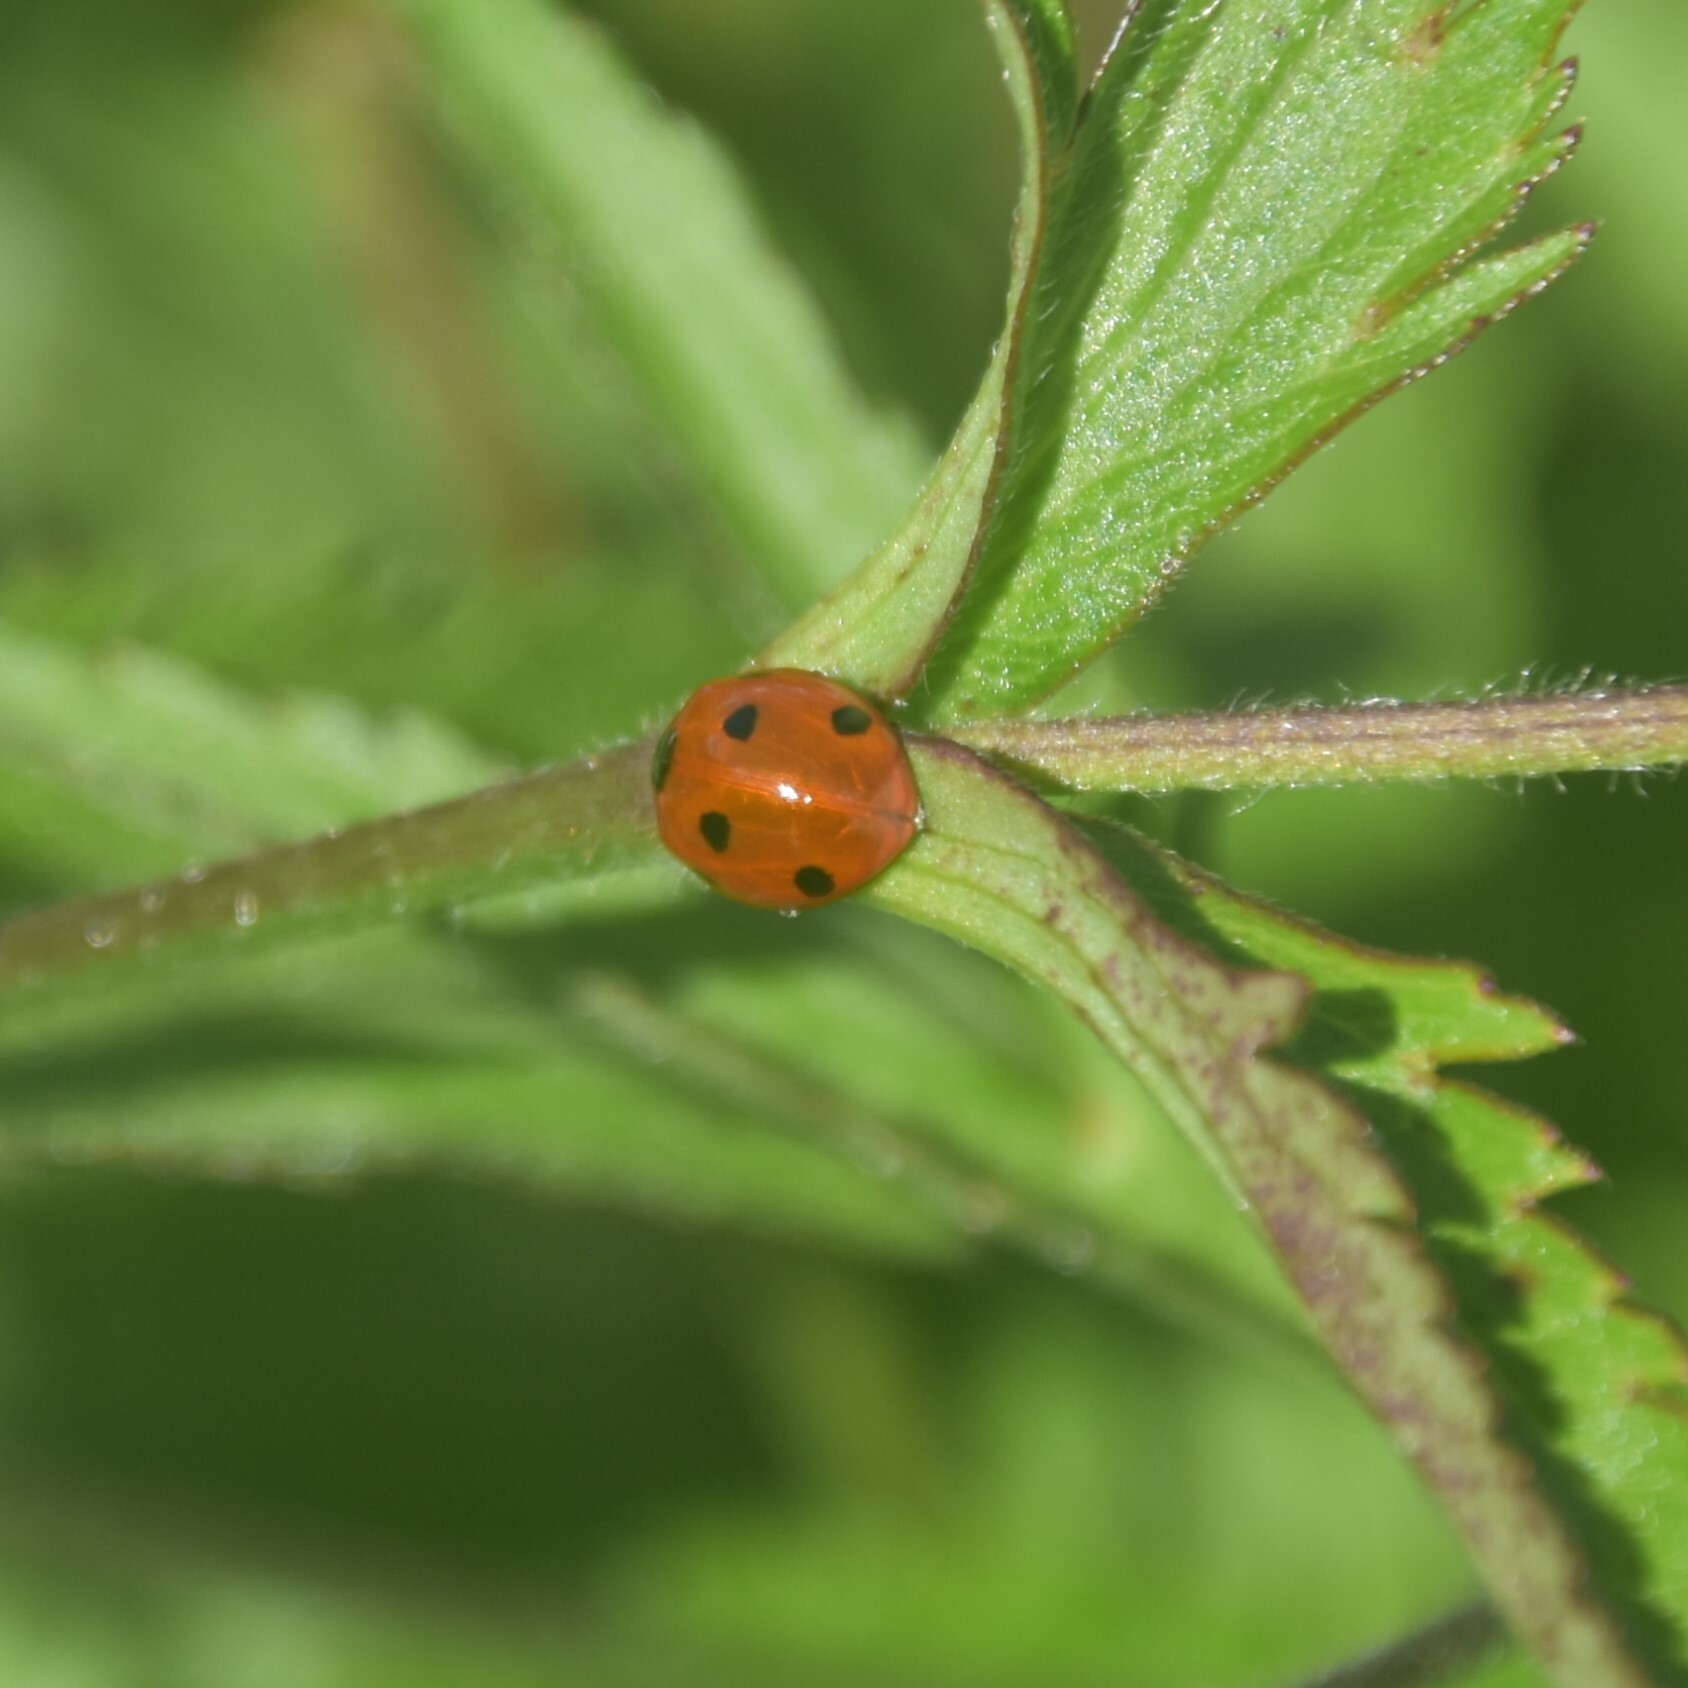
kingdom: Animalia
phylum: Arthropoda
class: Insecta
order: Coleoptera
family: Coccinellidae
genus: Coccinella
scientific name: Coccinella septempunctata
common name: Sevenspotted lady beetle
